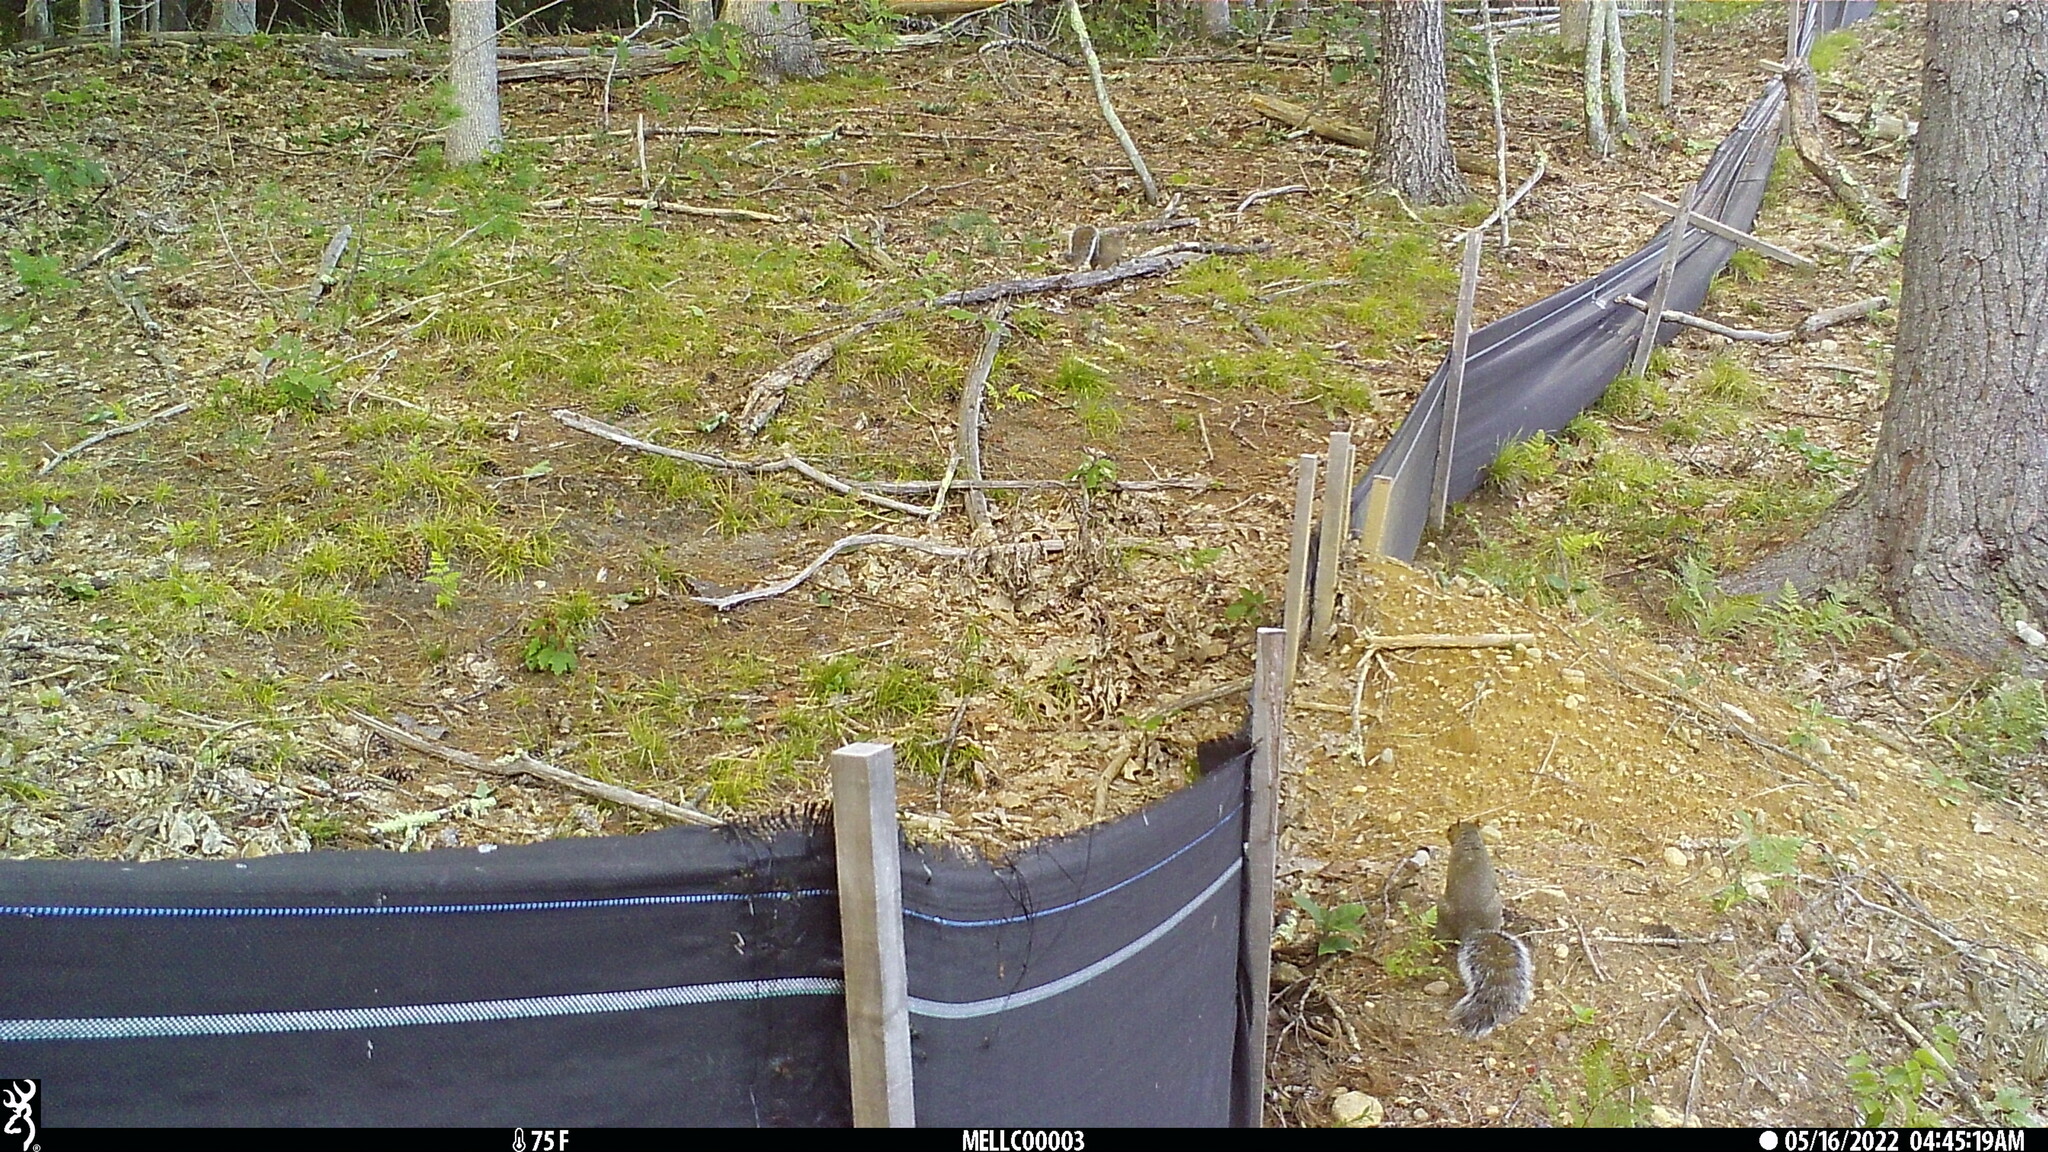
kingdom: Animalia
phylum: Chordata
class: Mammalia
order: Rodentia
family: Sciuridae
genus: Sciurus
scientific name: Sciurus carolinensis
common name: Eastern gray squirrel
